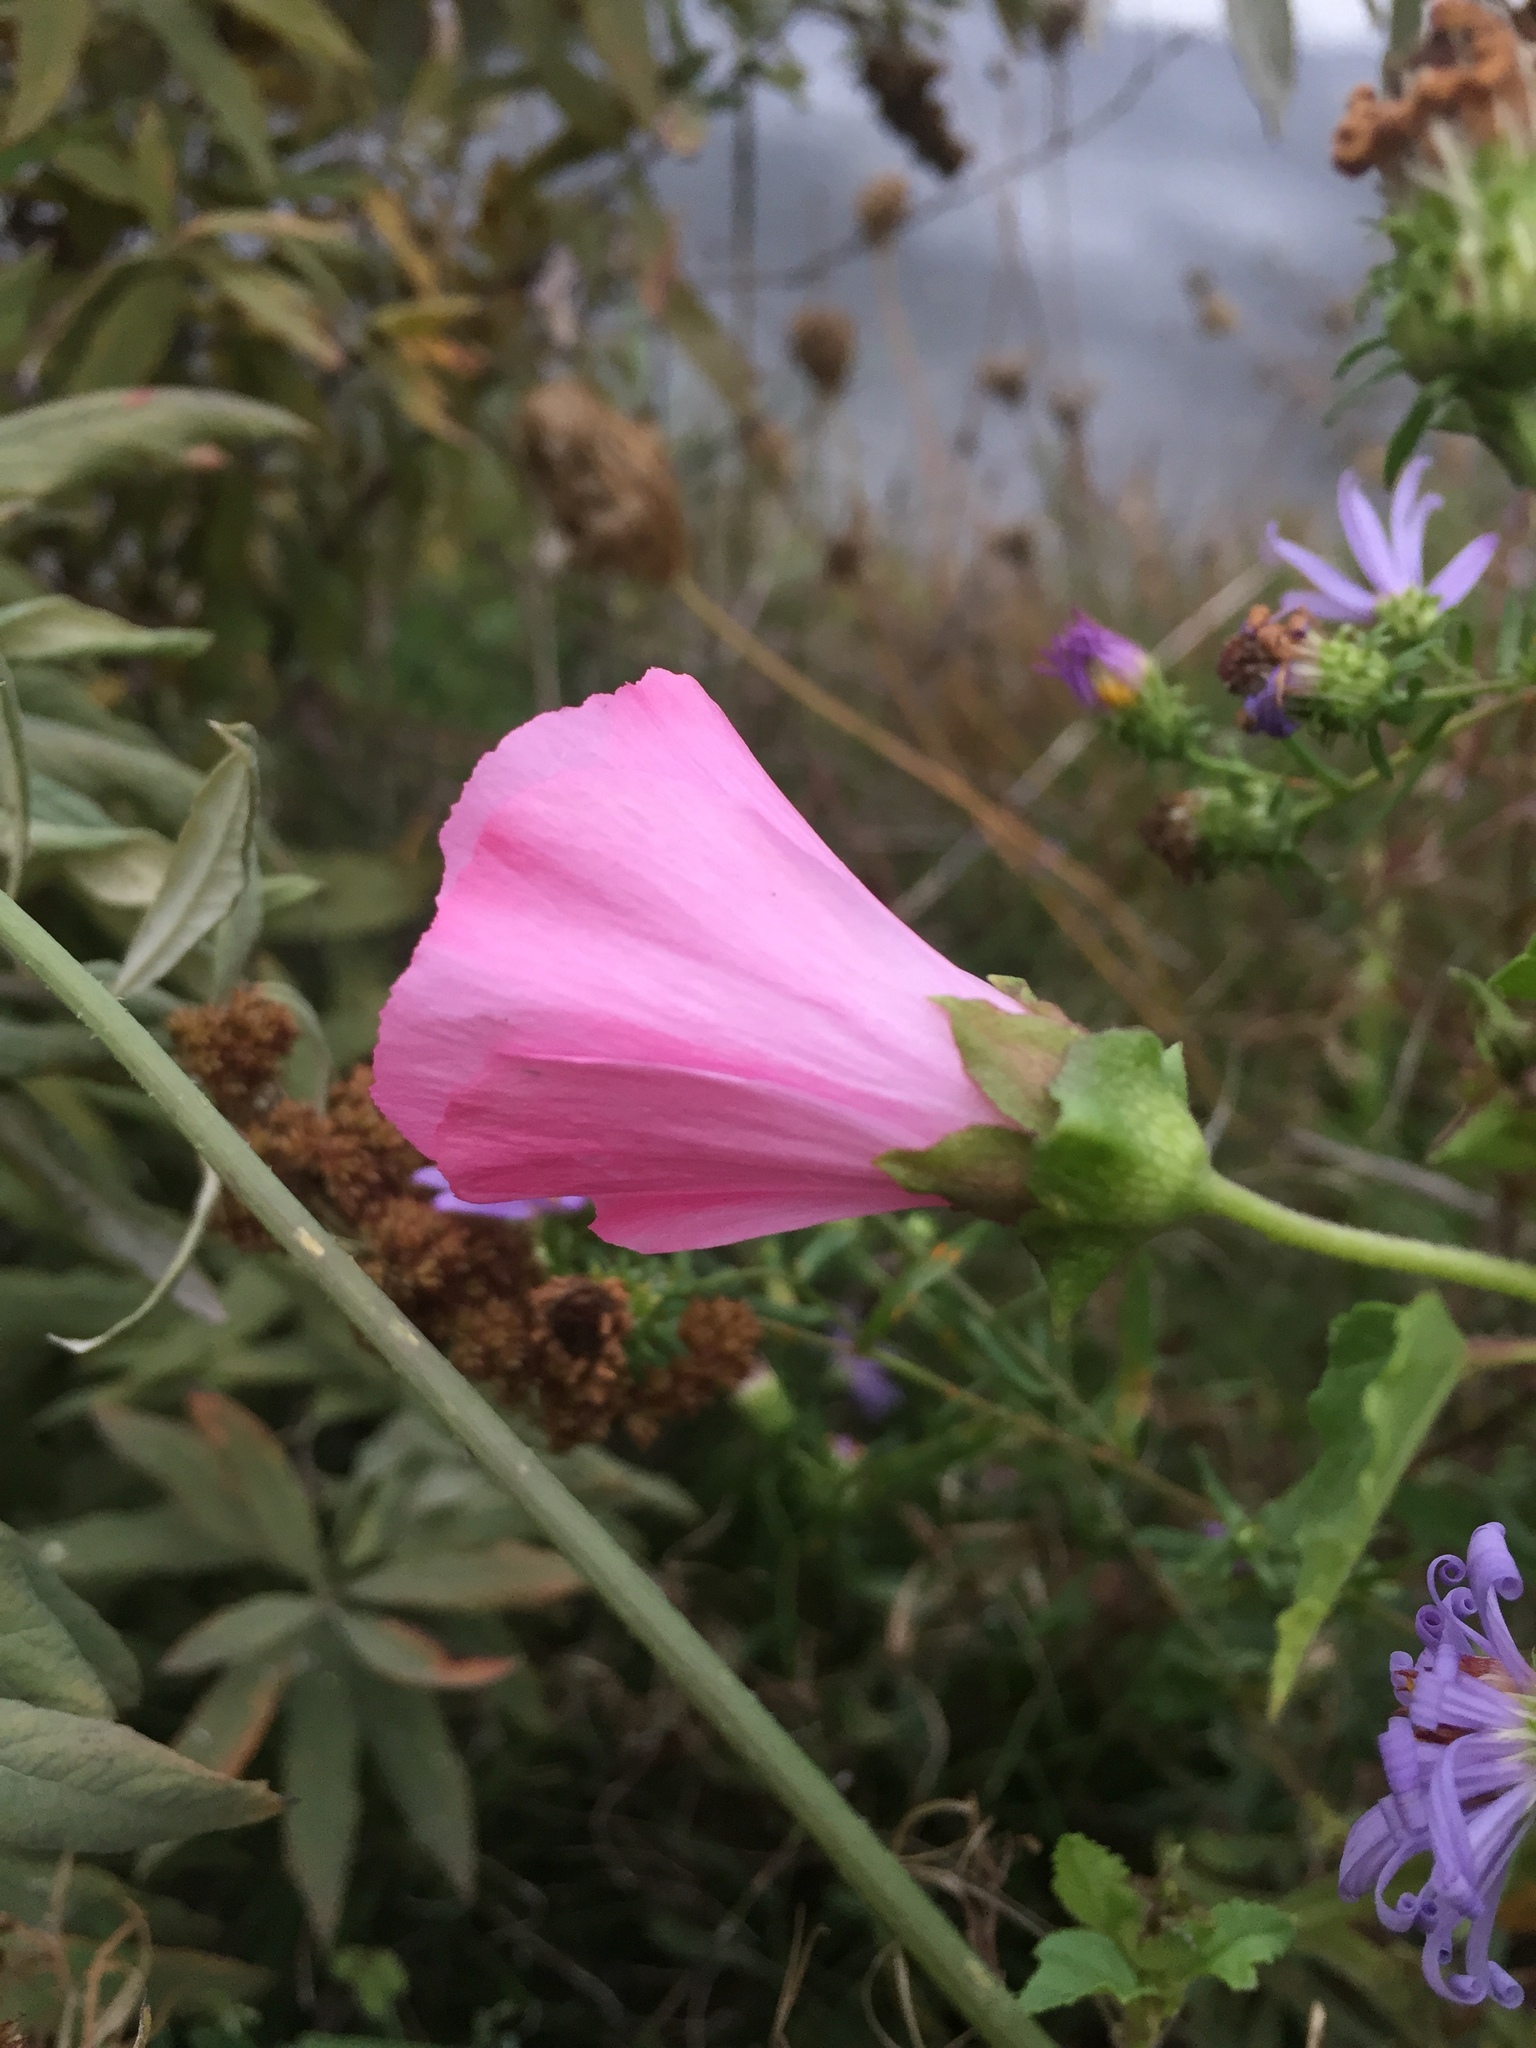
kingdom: Plantae
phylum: Tracheophyta
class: Magnoliopsida
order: Malvales
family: Malvaceae
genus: Malva
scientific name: Malva trimestris
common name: Royal mallow
